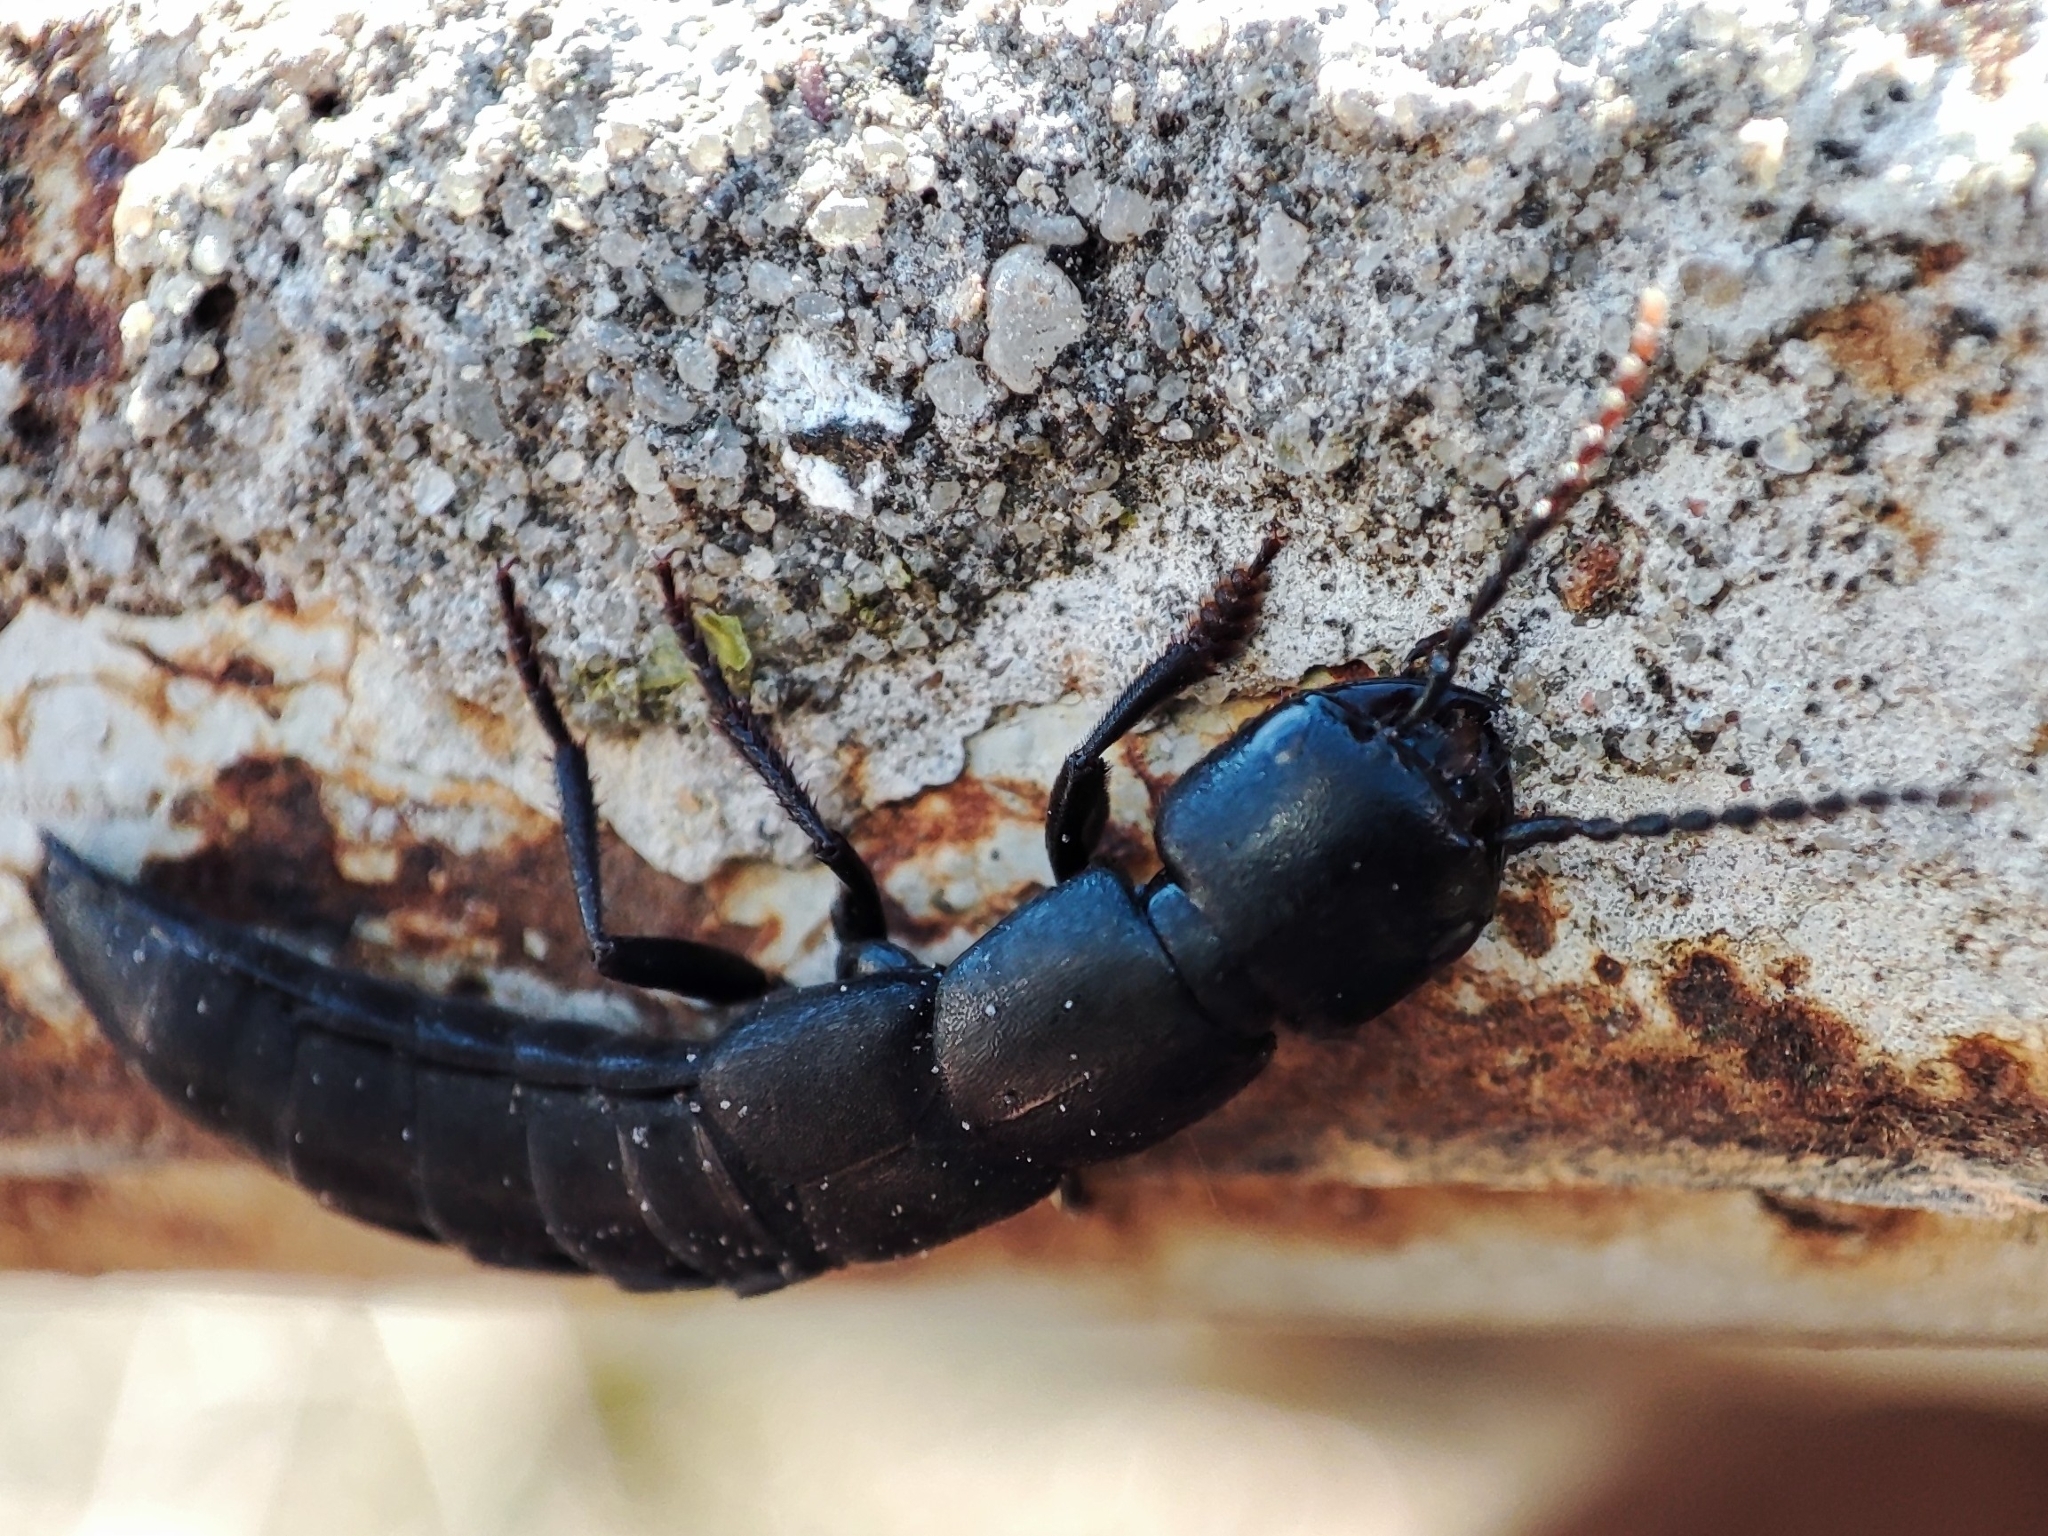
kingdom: Animalia
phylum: Arthropoda
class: Insecta
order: Coleoptera
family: Staphylinidae
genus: Ocypus
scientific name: Ocypus nitens
